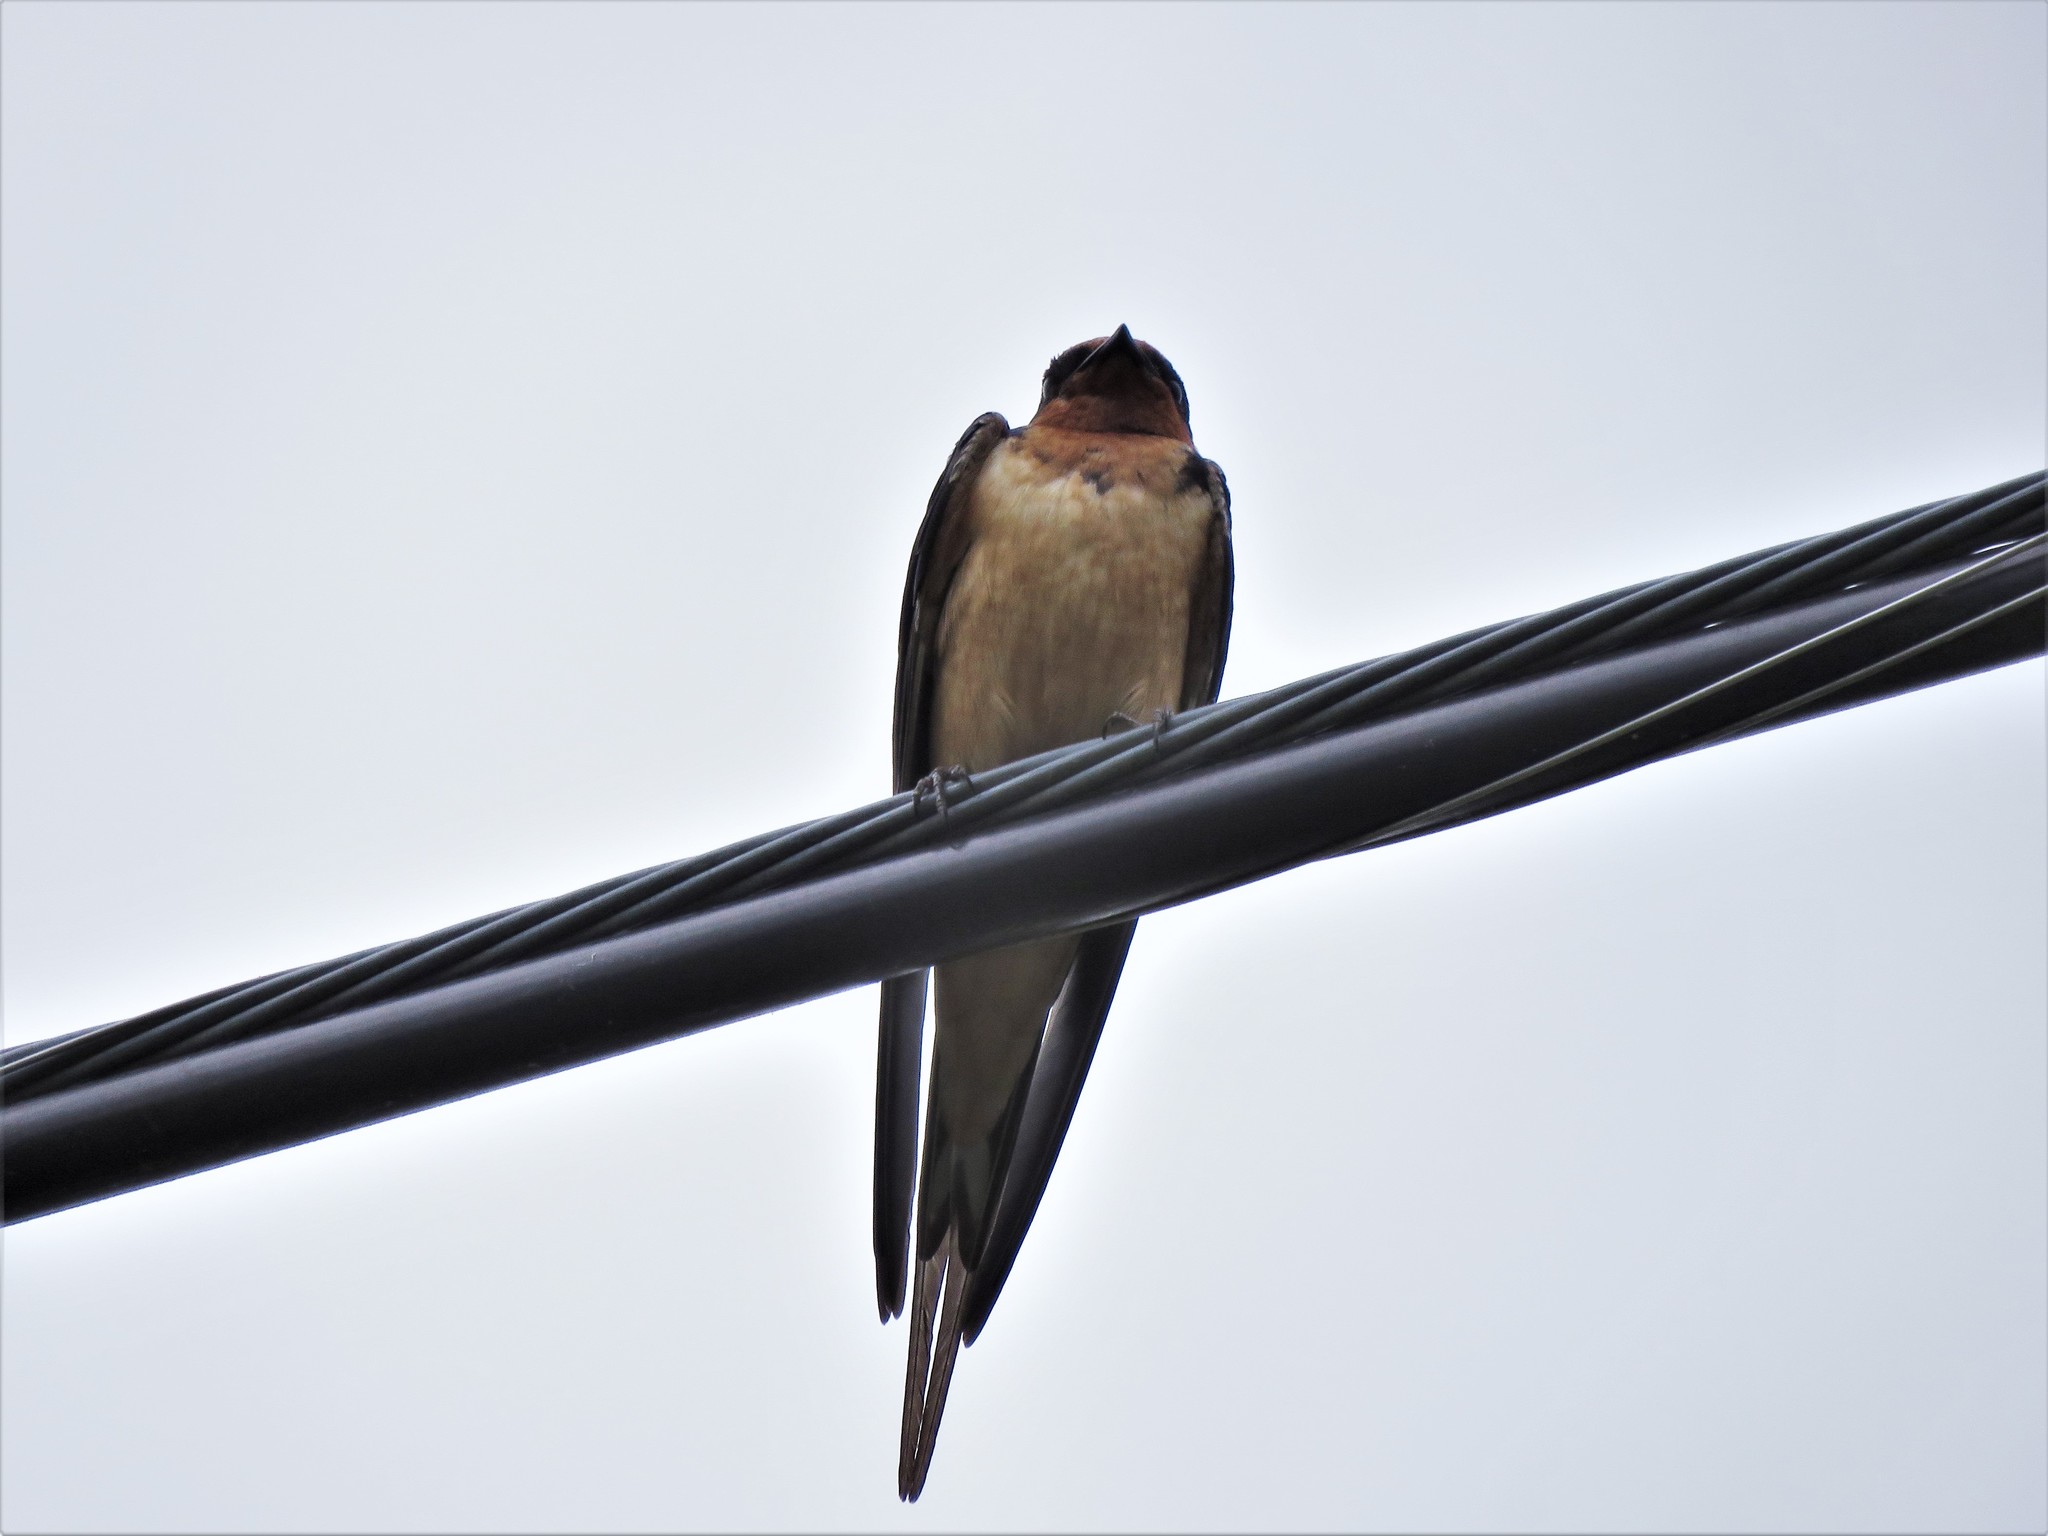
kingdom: Animalia
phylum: Chordata
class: Aves
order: Passeriformes
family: Hirundinidae
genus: Hirundo
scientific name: Hirundo rustica
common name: Barn swallow
